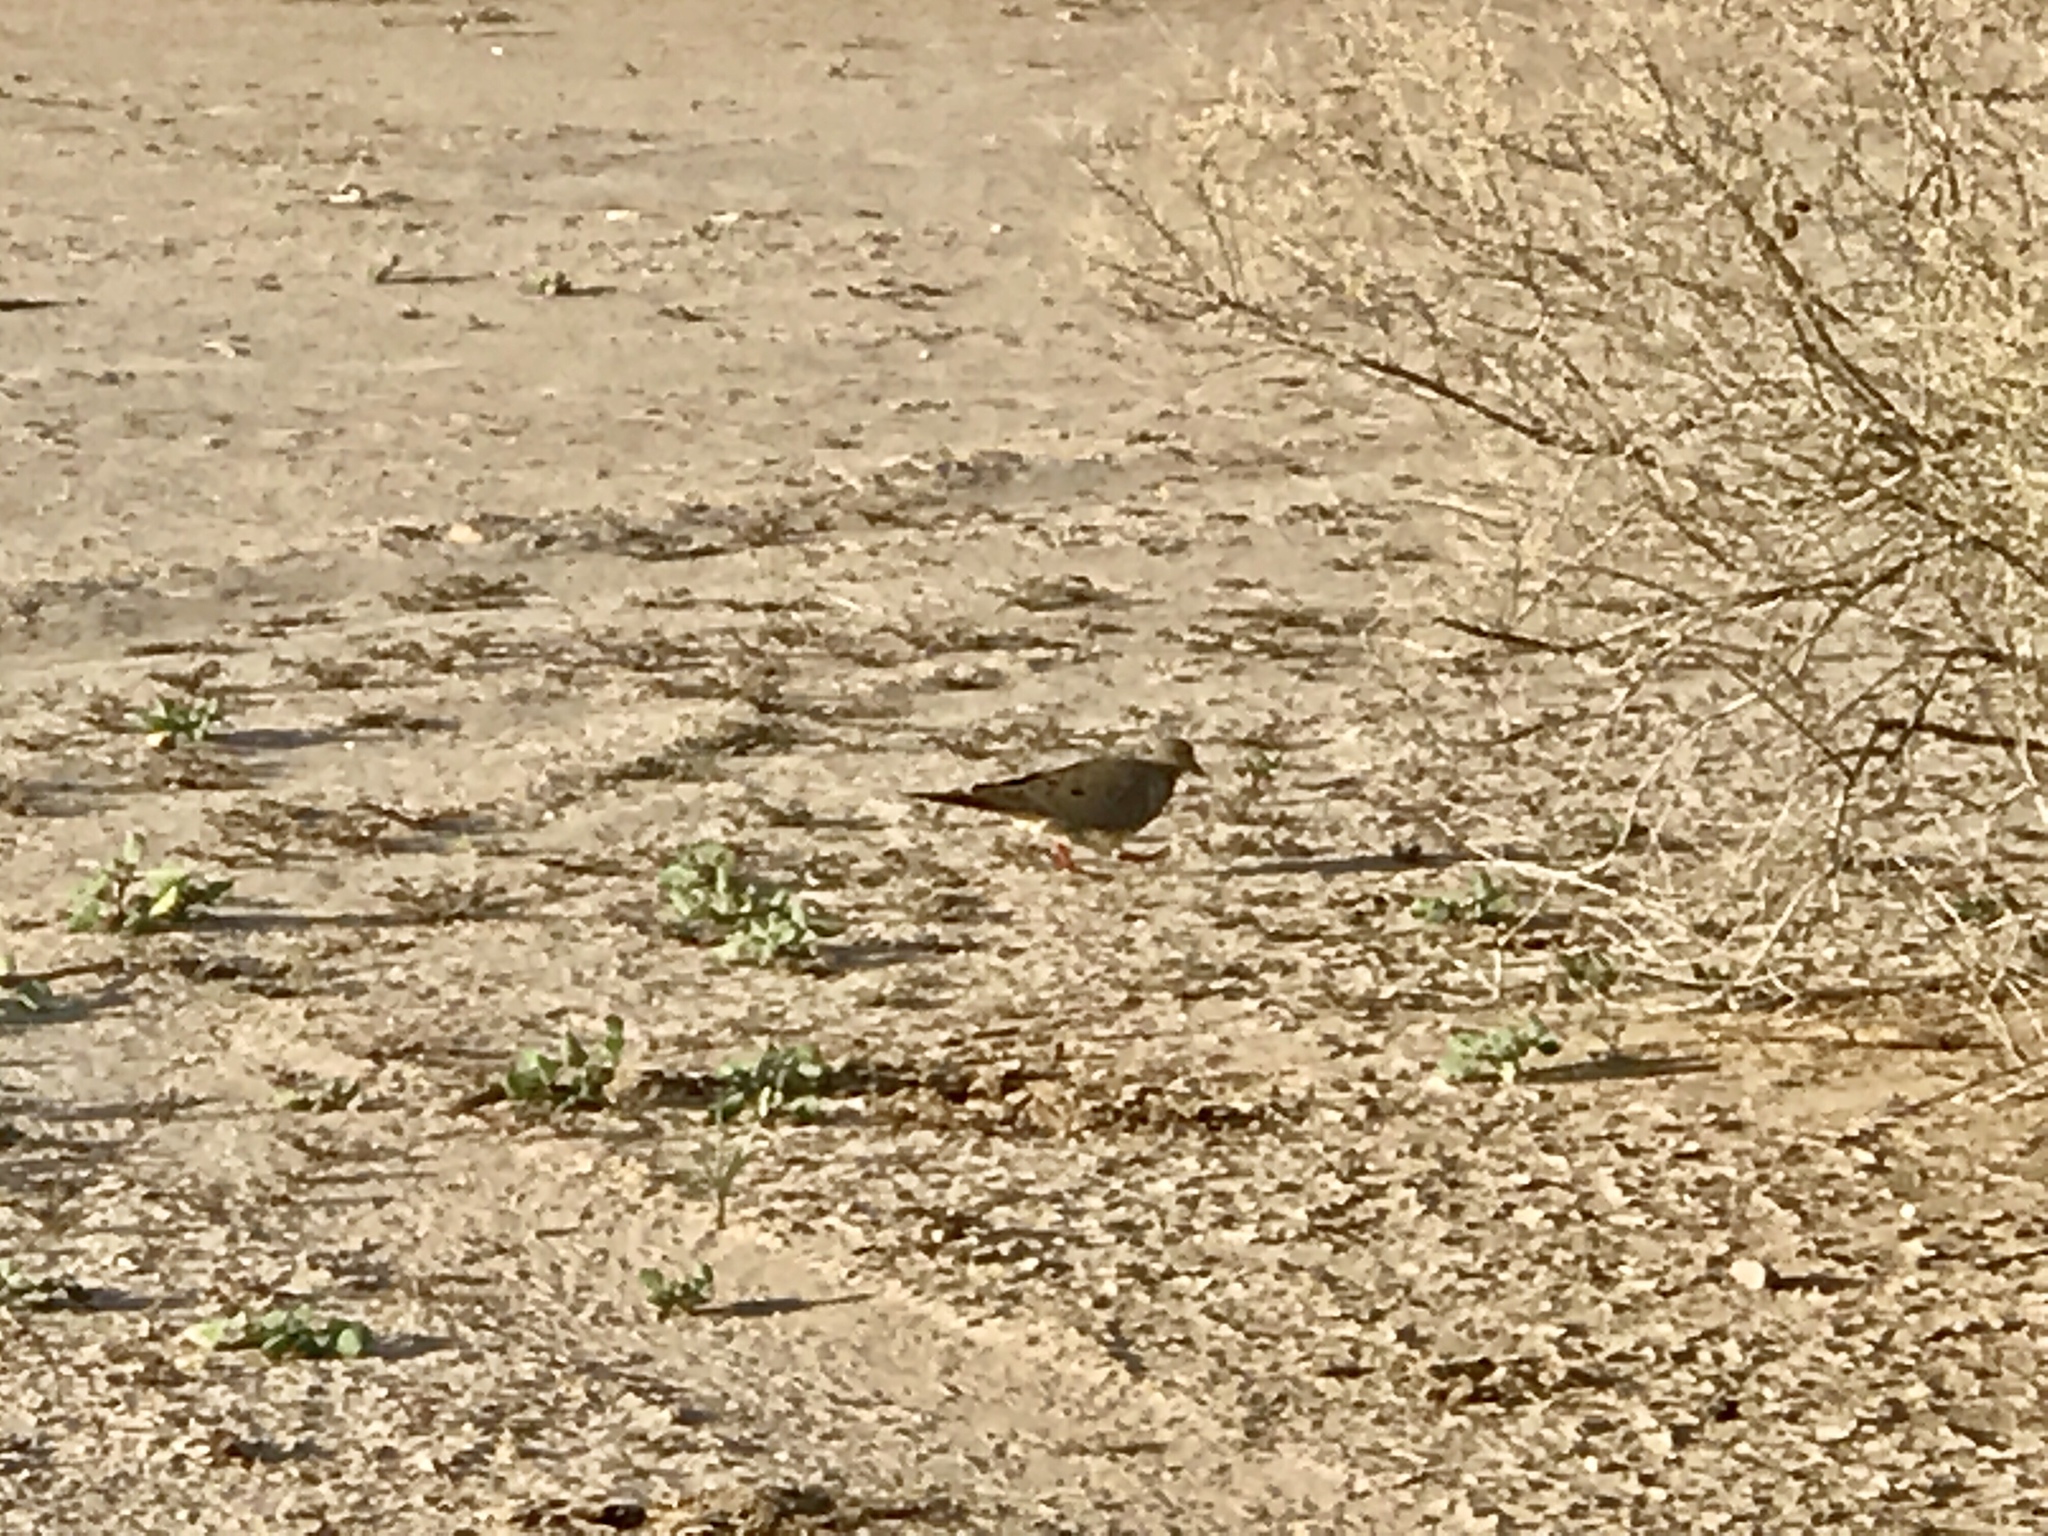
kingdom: Animalia
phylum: Chordata
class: Aves
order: Columbiformes
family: Columbidae
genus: Zenaida
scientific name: Zenaida macroura
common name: Mourning dove
